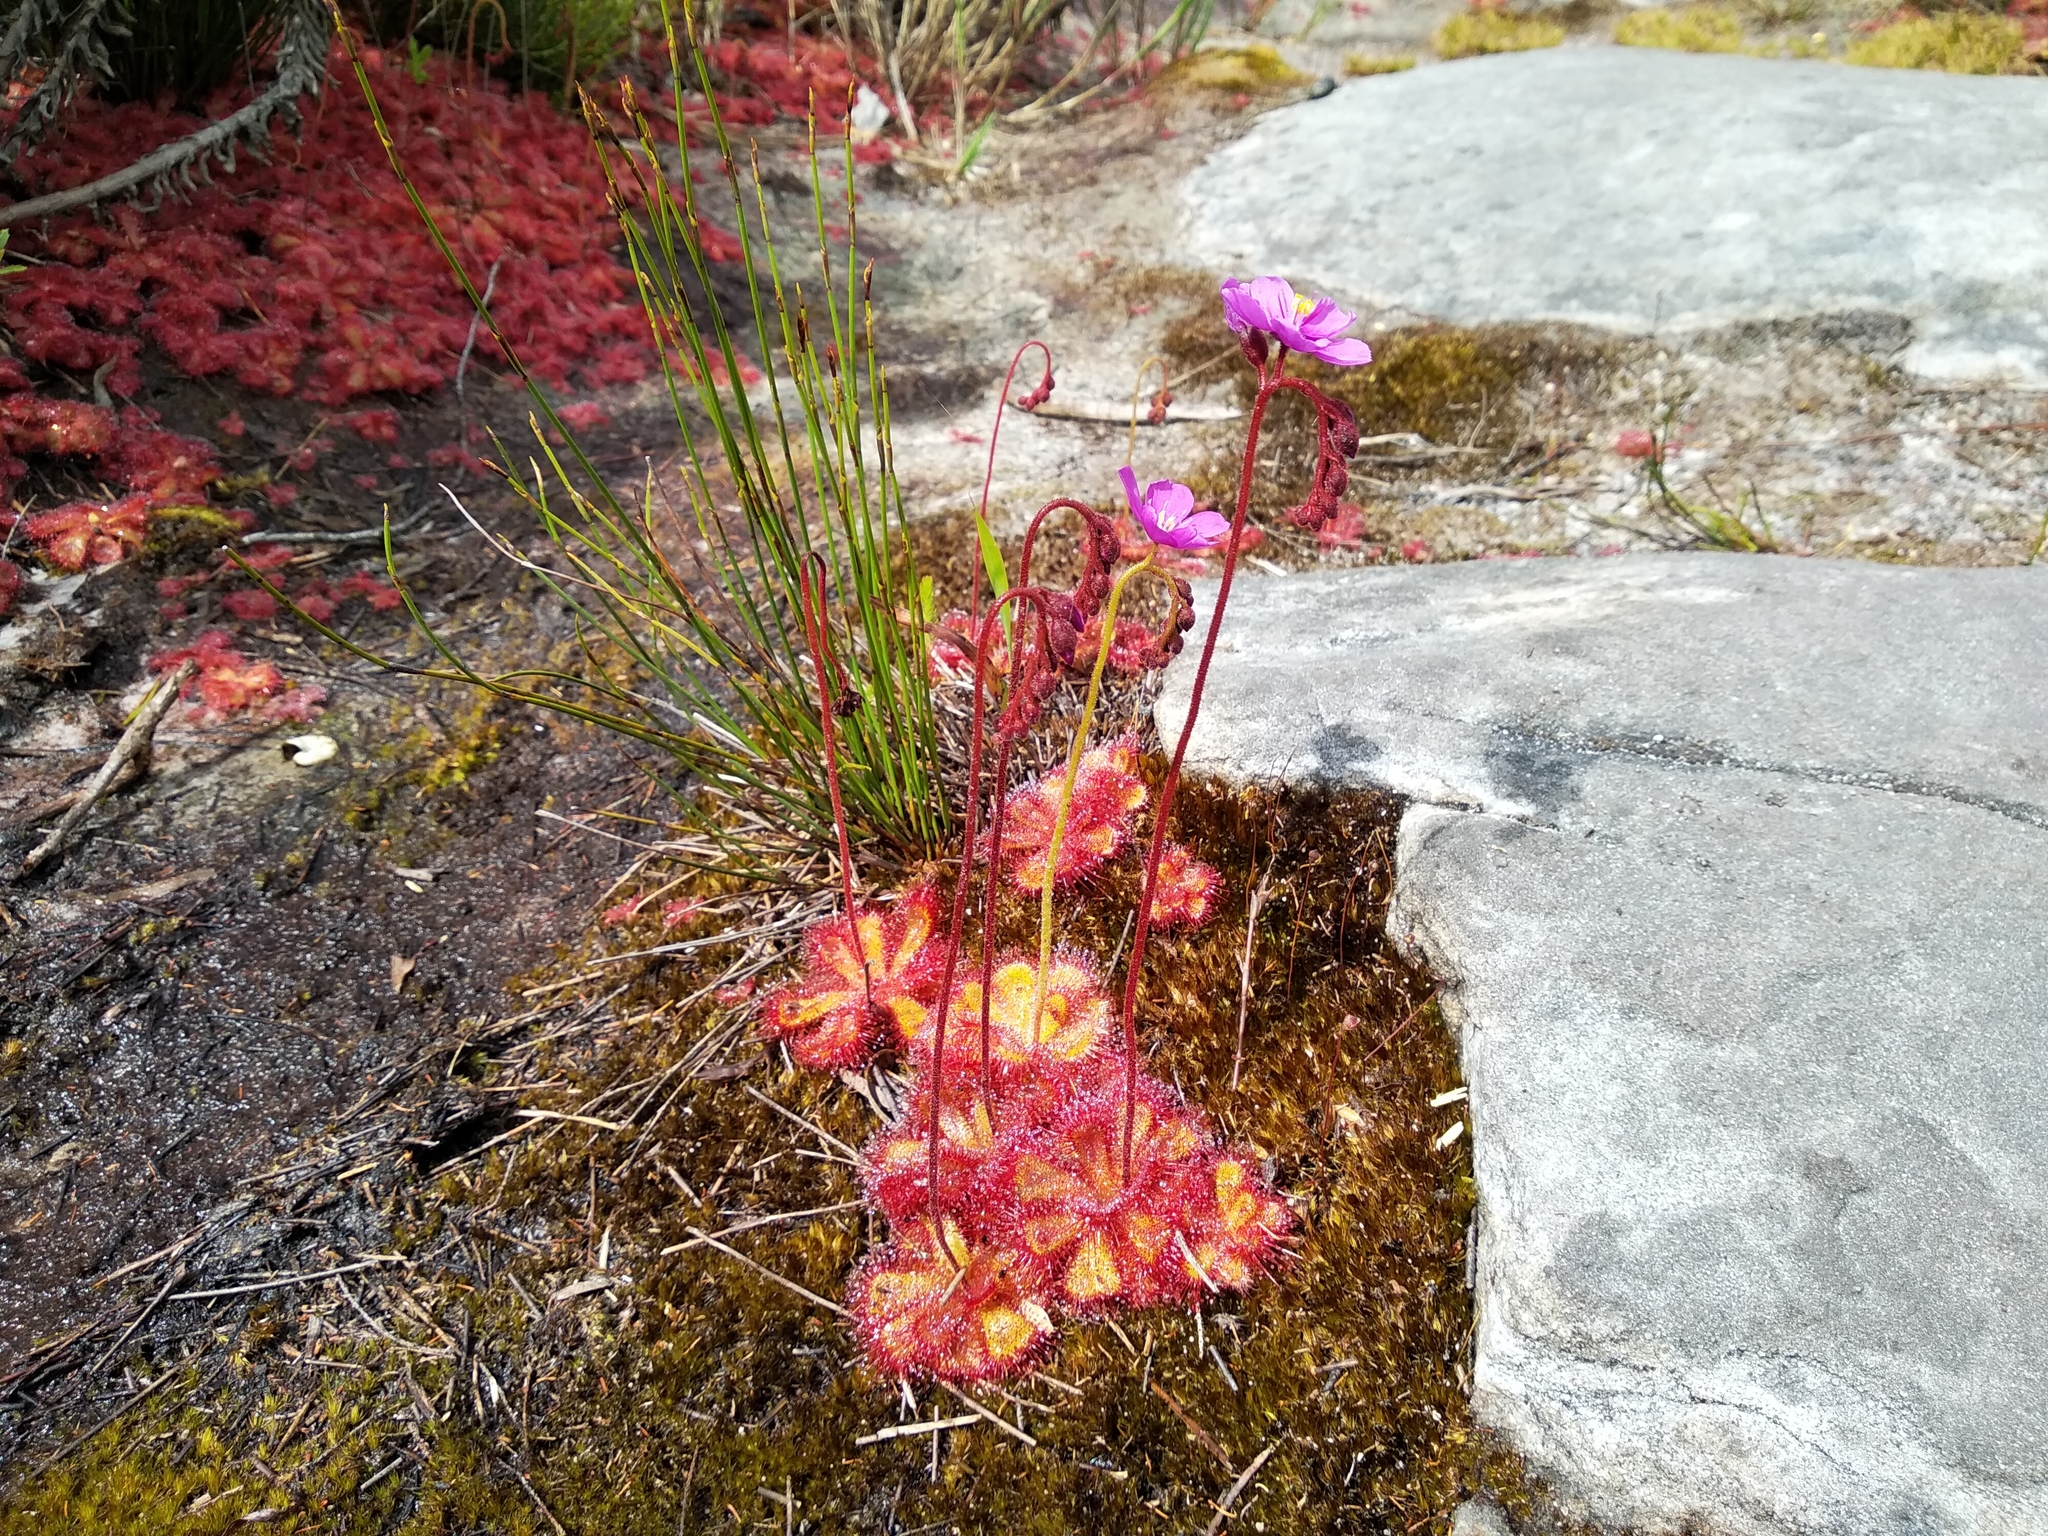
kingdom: Plantae
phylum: Tracheophyta
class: Magnoliopsida
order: Caryophyllales
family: Droseraceae
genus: Drosera
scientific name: Drosera cuneifolia
